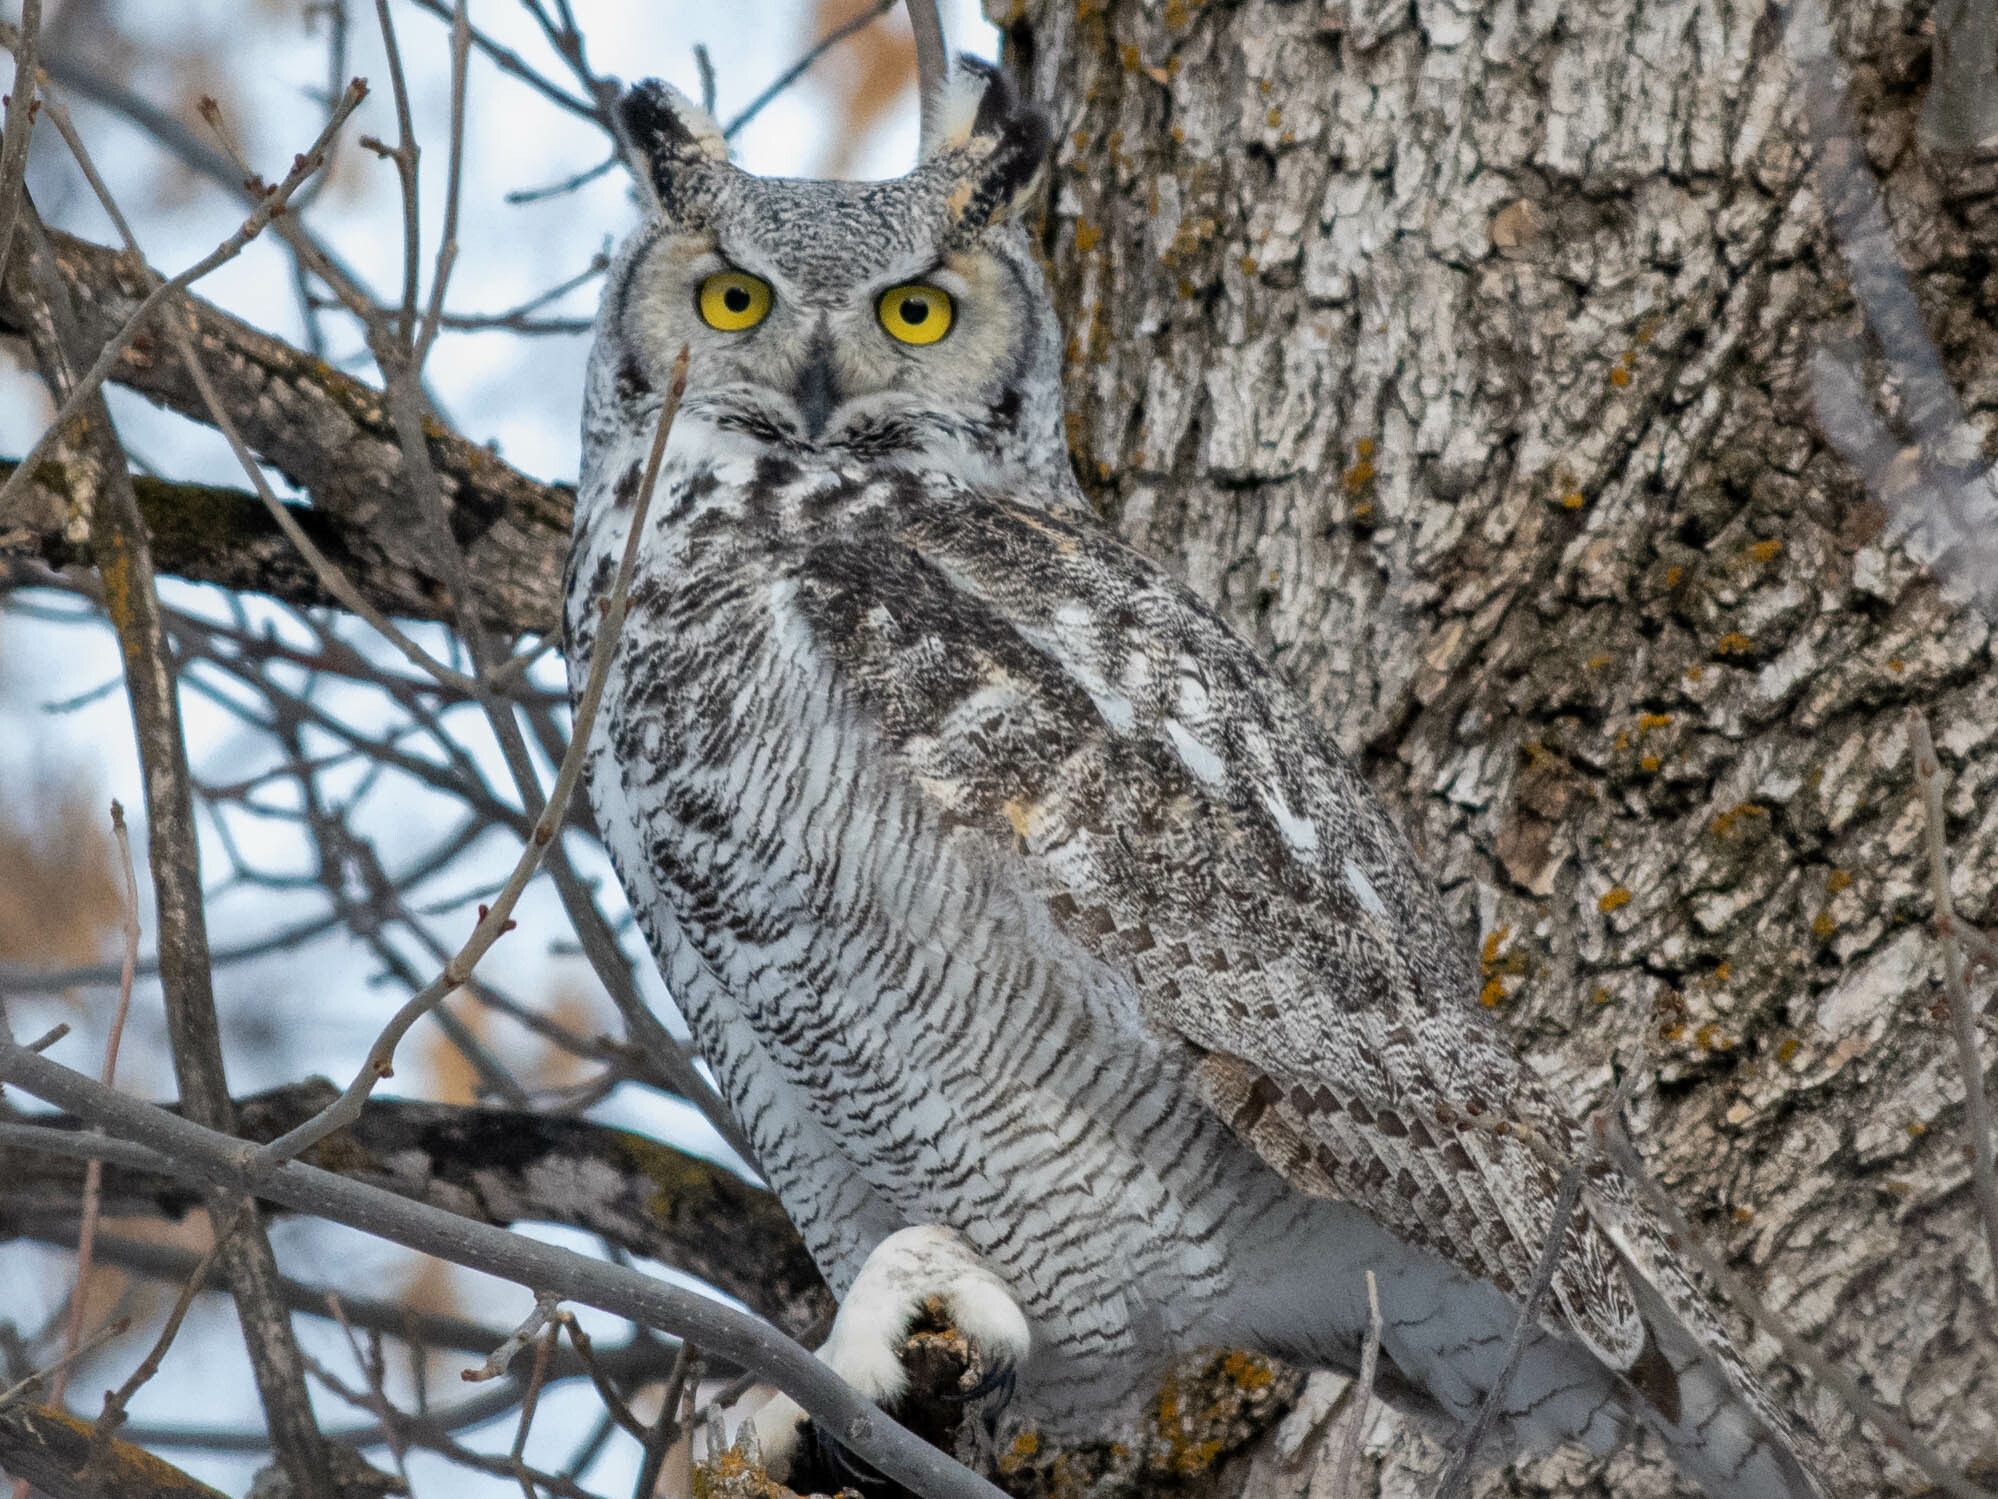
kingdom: Animalia
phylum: Chordata
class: Aves
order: Strigiformes
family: Strigidae
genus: Bubo
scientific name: Bubo virginianus
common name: Great horned owl
